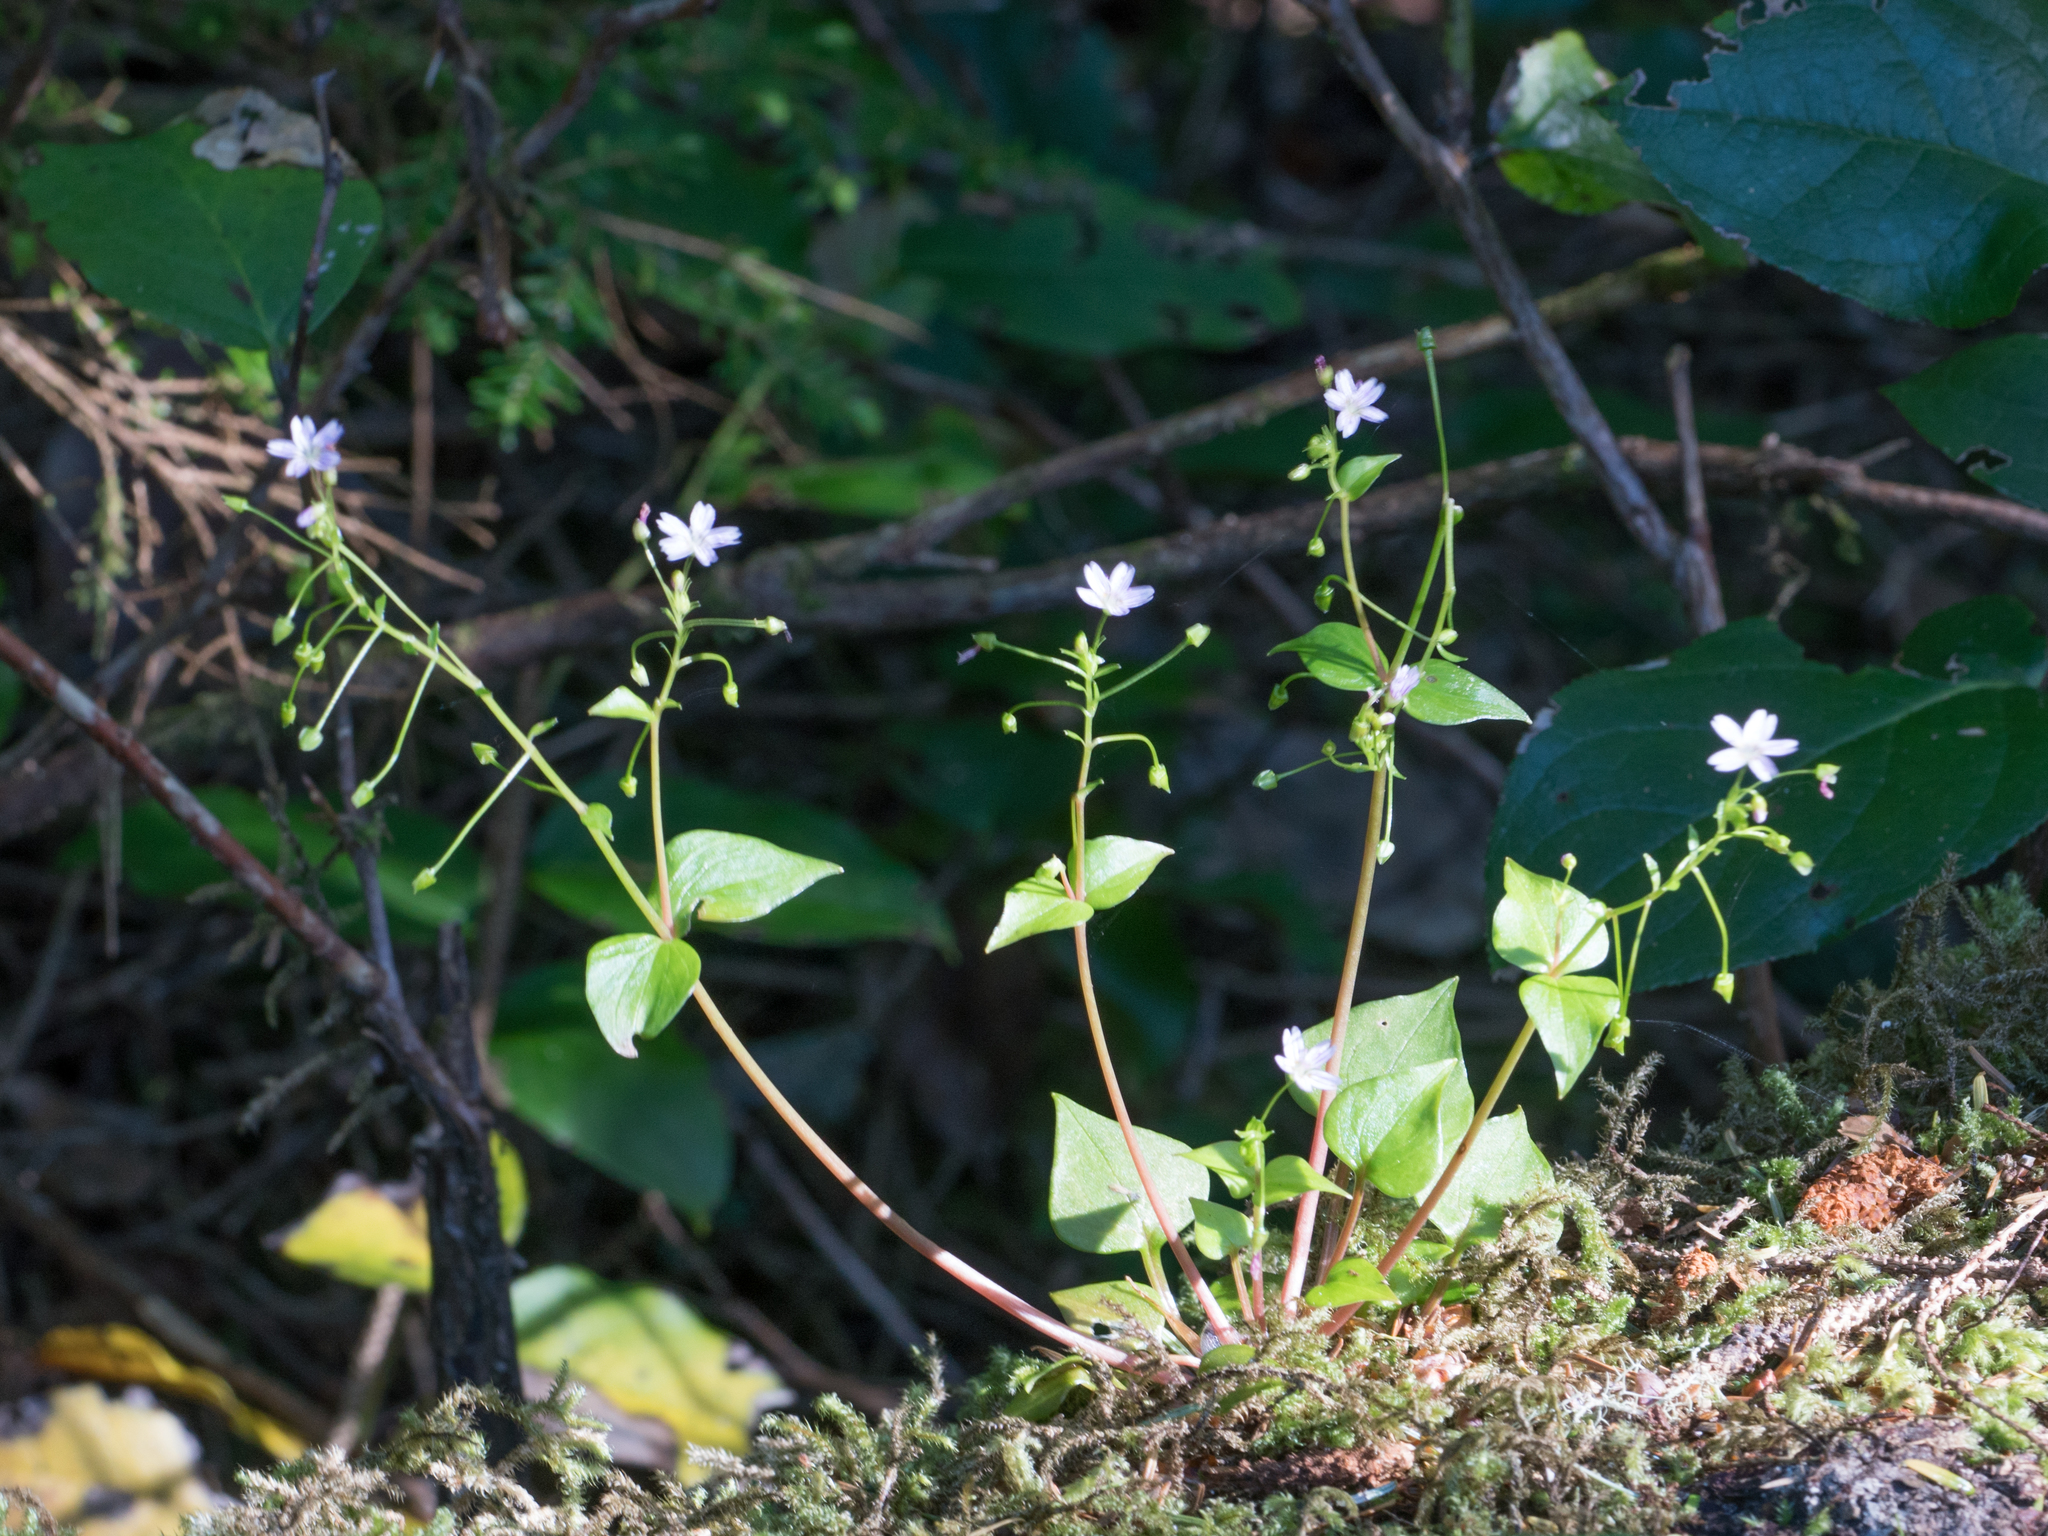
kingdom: Plantae
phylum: Tracheophyta
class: Magnoliopsida
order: Caryophyllales
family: Montiaceae
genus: Claytonia
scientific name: Claytonia sibirica
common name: Pink purslane
